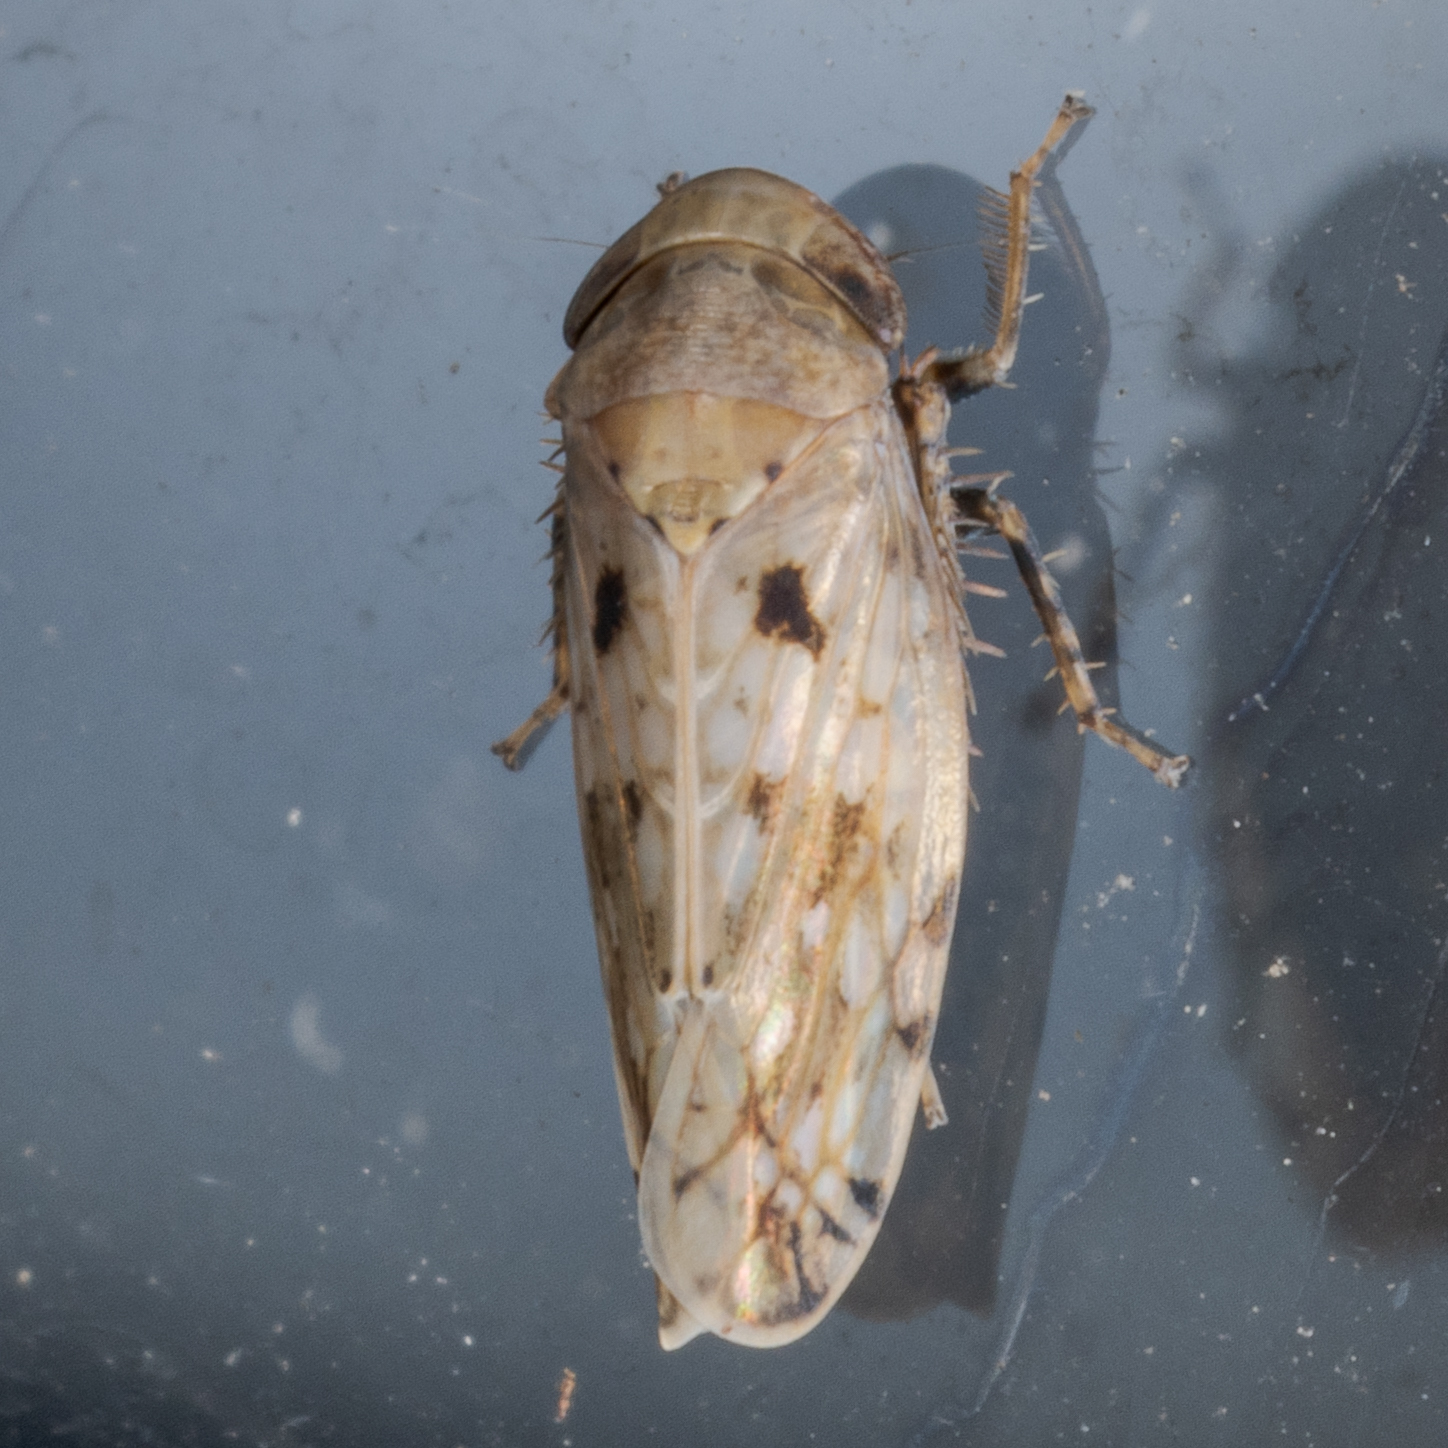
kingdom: Animalia
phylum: Arthropoda
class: Insecta
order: Hemiptera
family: Cicadellidae
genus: Menosoma
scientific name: Menosoma cinctum
